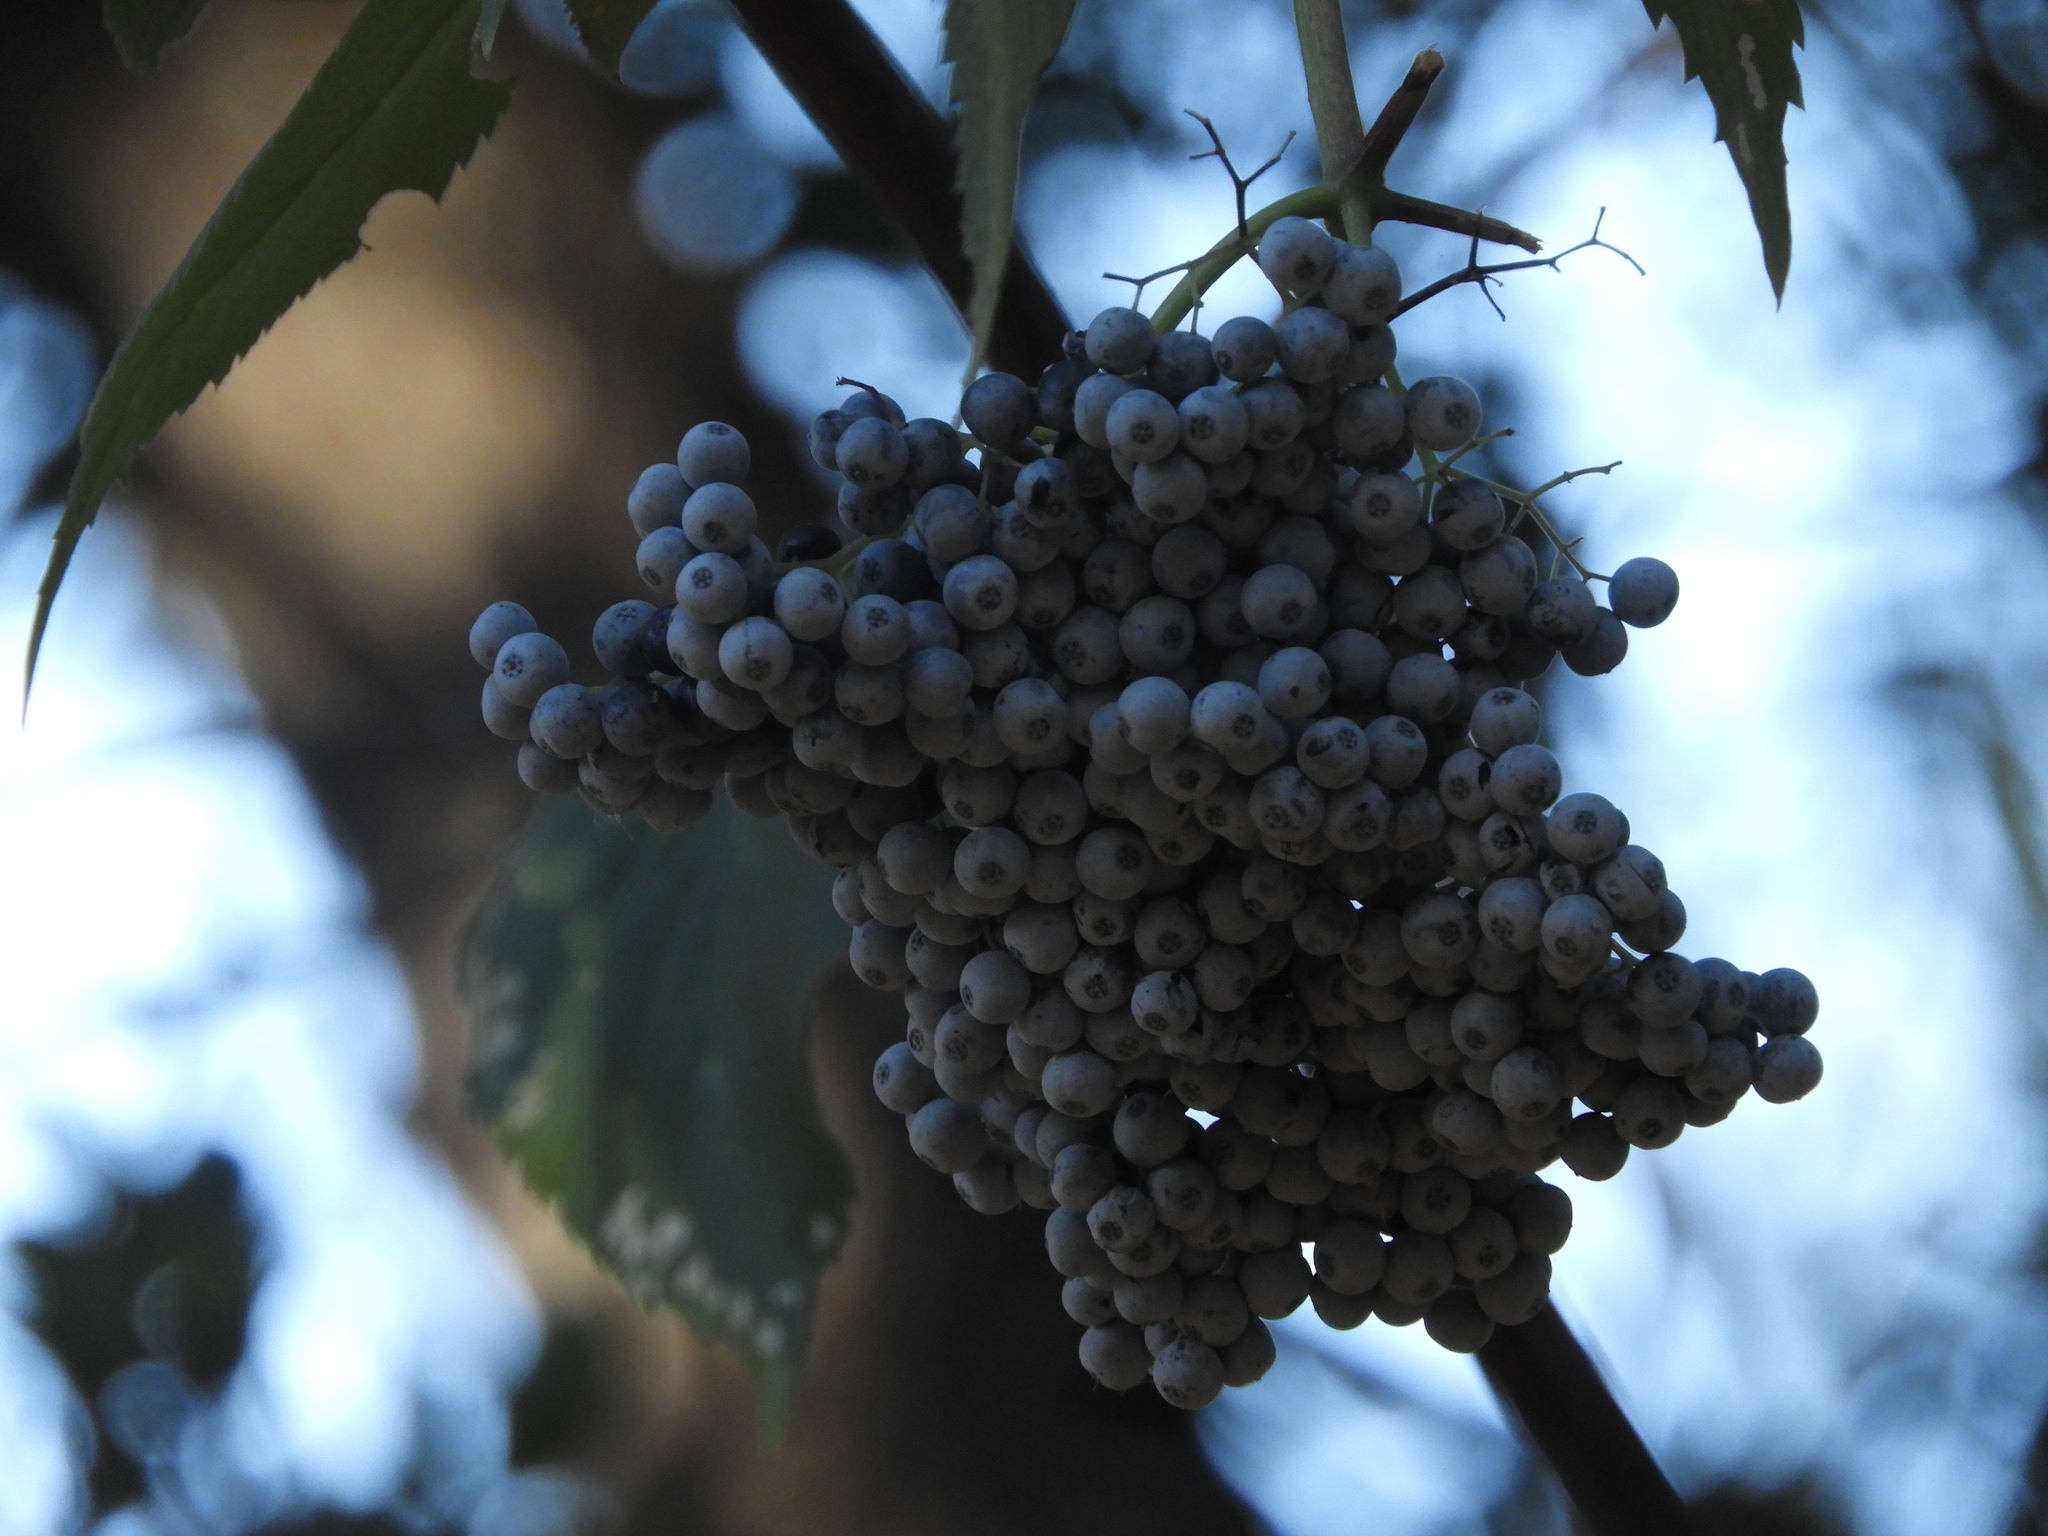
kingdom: Plantae
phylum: Tracheophyta
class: Magnoliopsida
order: Dipsacales
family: Viburnaceae
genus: Sambucus
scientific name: Sambucus cerulea
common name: Blue elder
